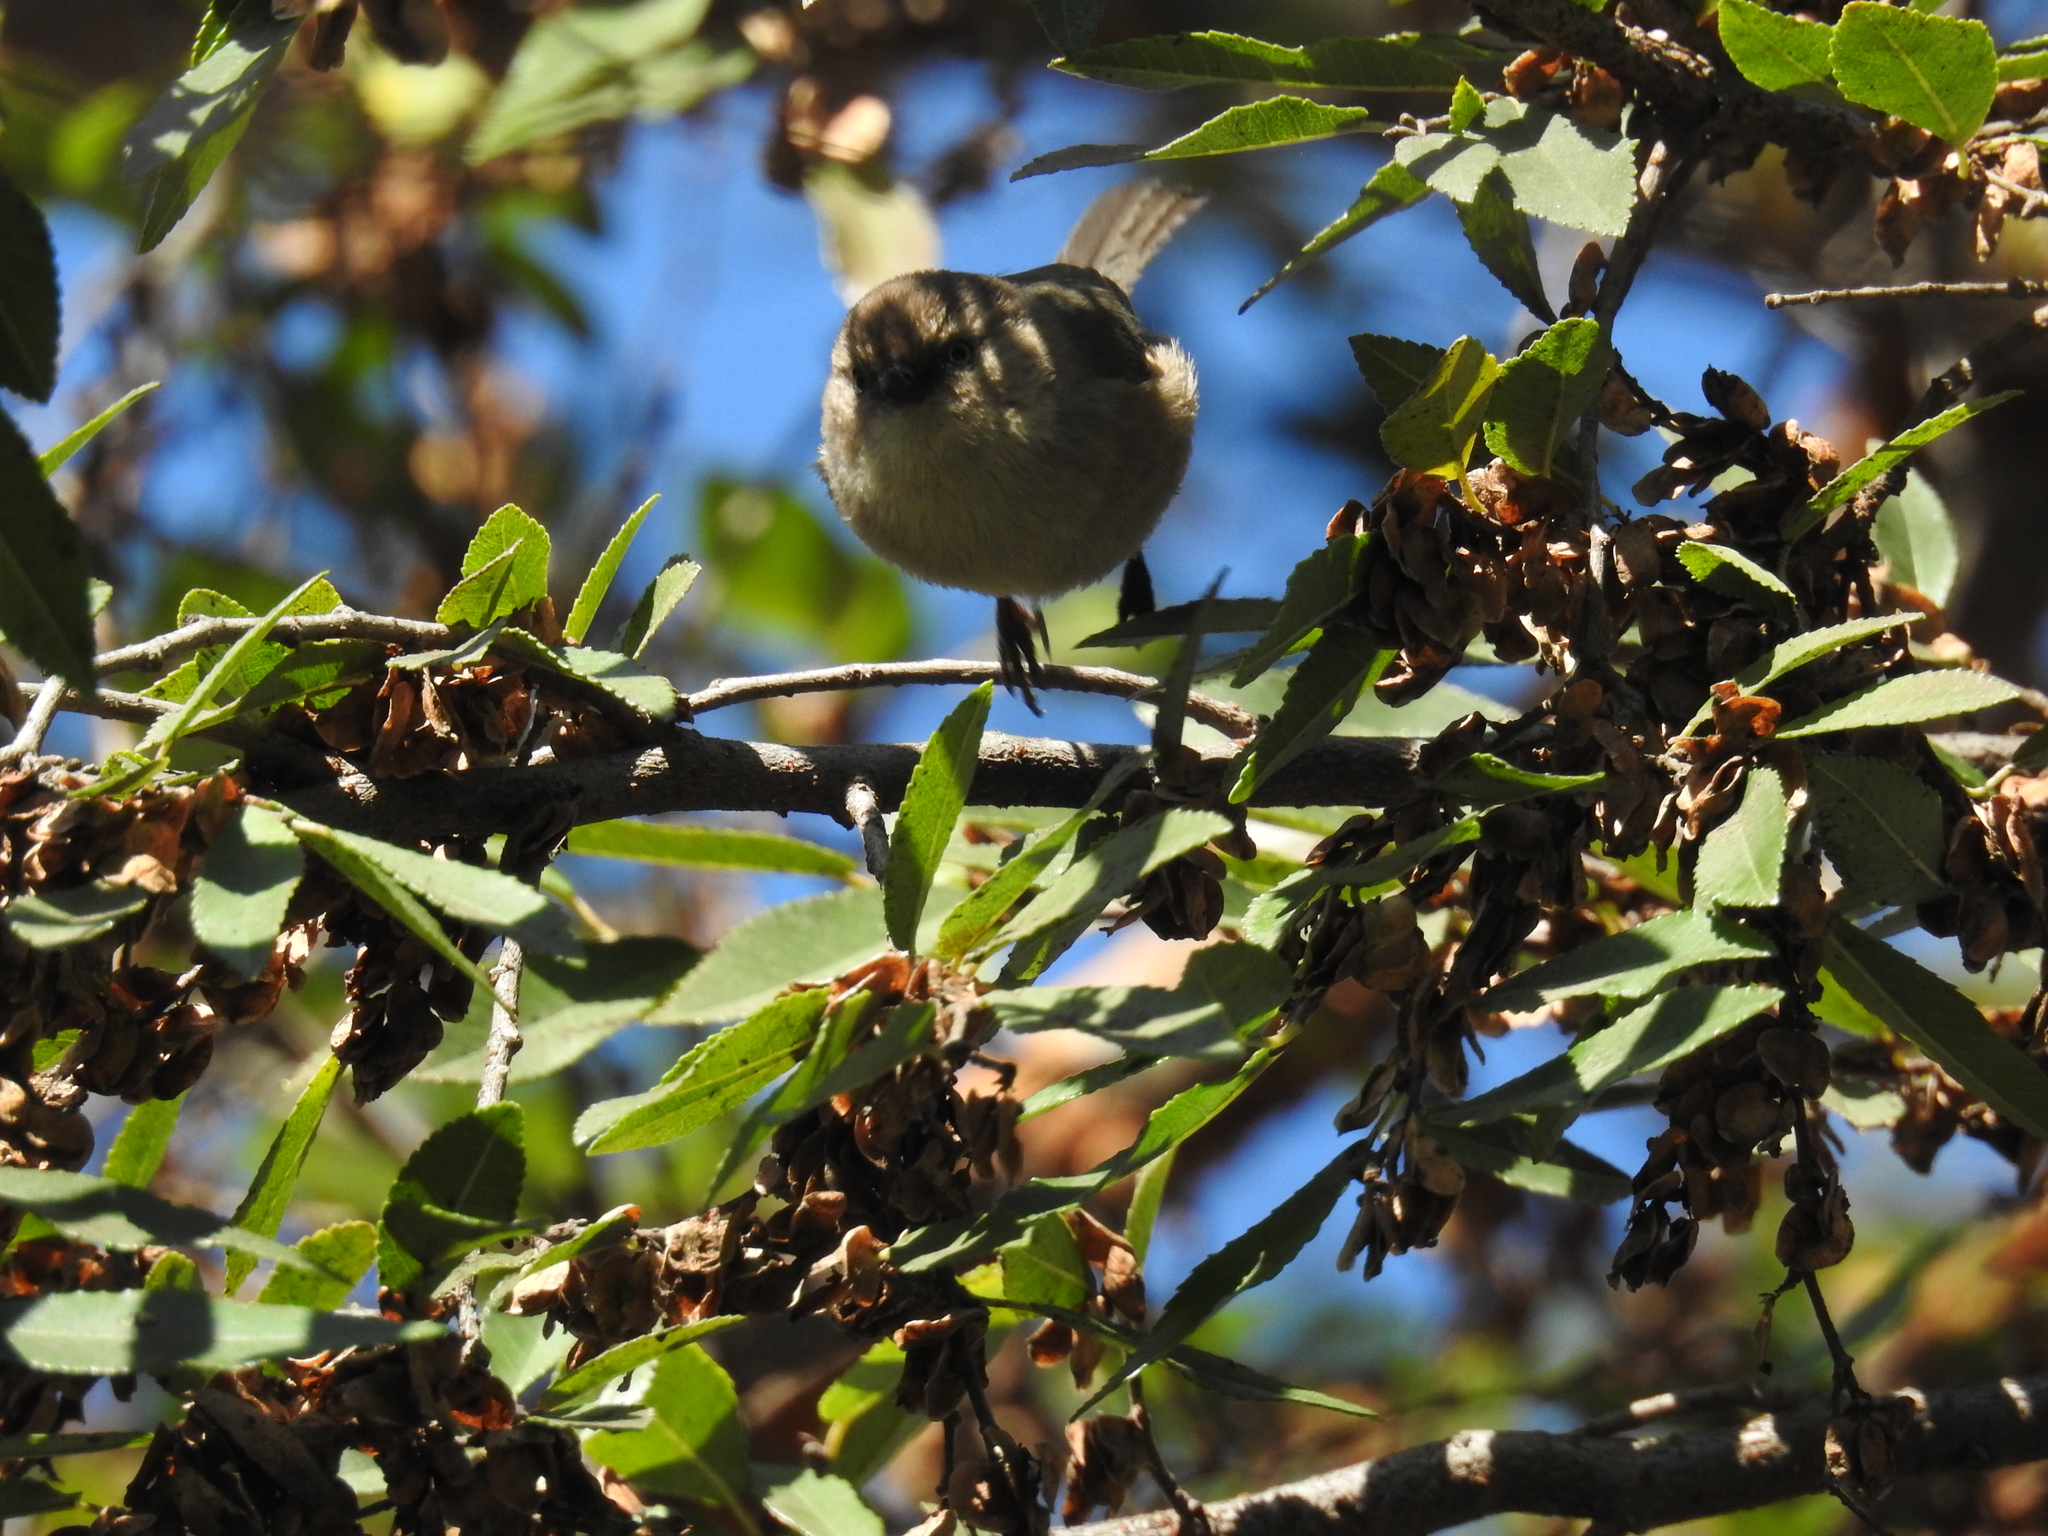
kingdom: Animalia
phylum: Chordata
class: Aves
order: Passeriformes
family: Aegithalidae
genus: Psaltriparus
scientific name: Psaltriparus minimus
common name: American bushtit
